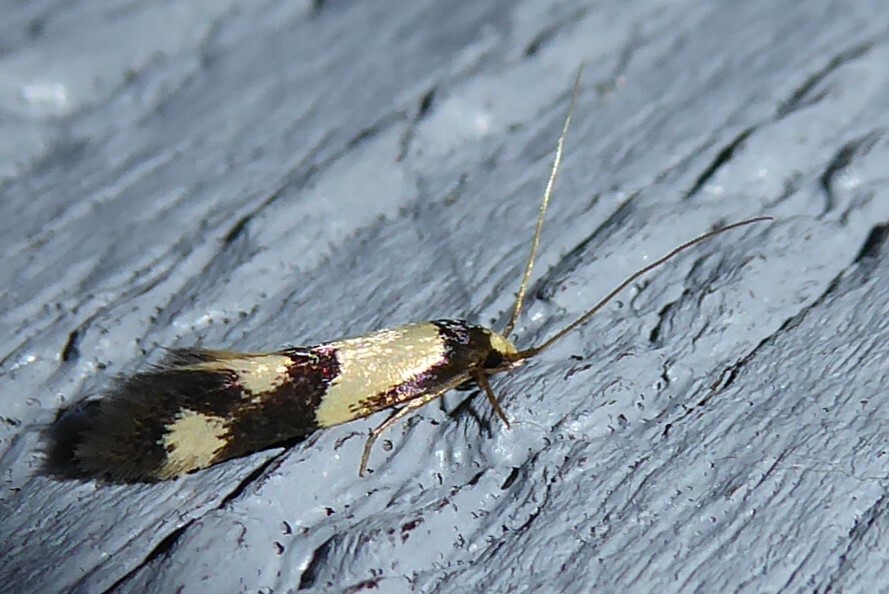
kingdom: Animalia
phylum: Arthropoda
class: Insecta
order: Lepidoptera
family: Tineidae
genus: Opogona
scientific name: Opogona comptella
